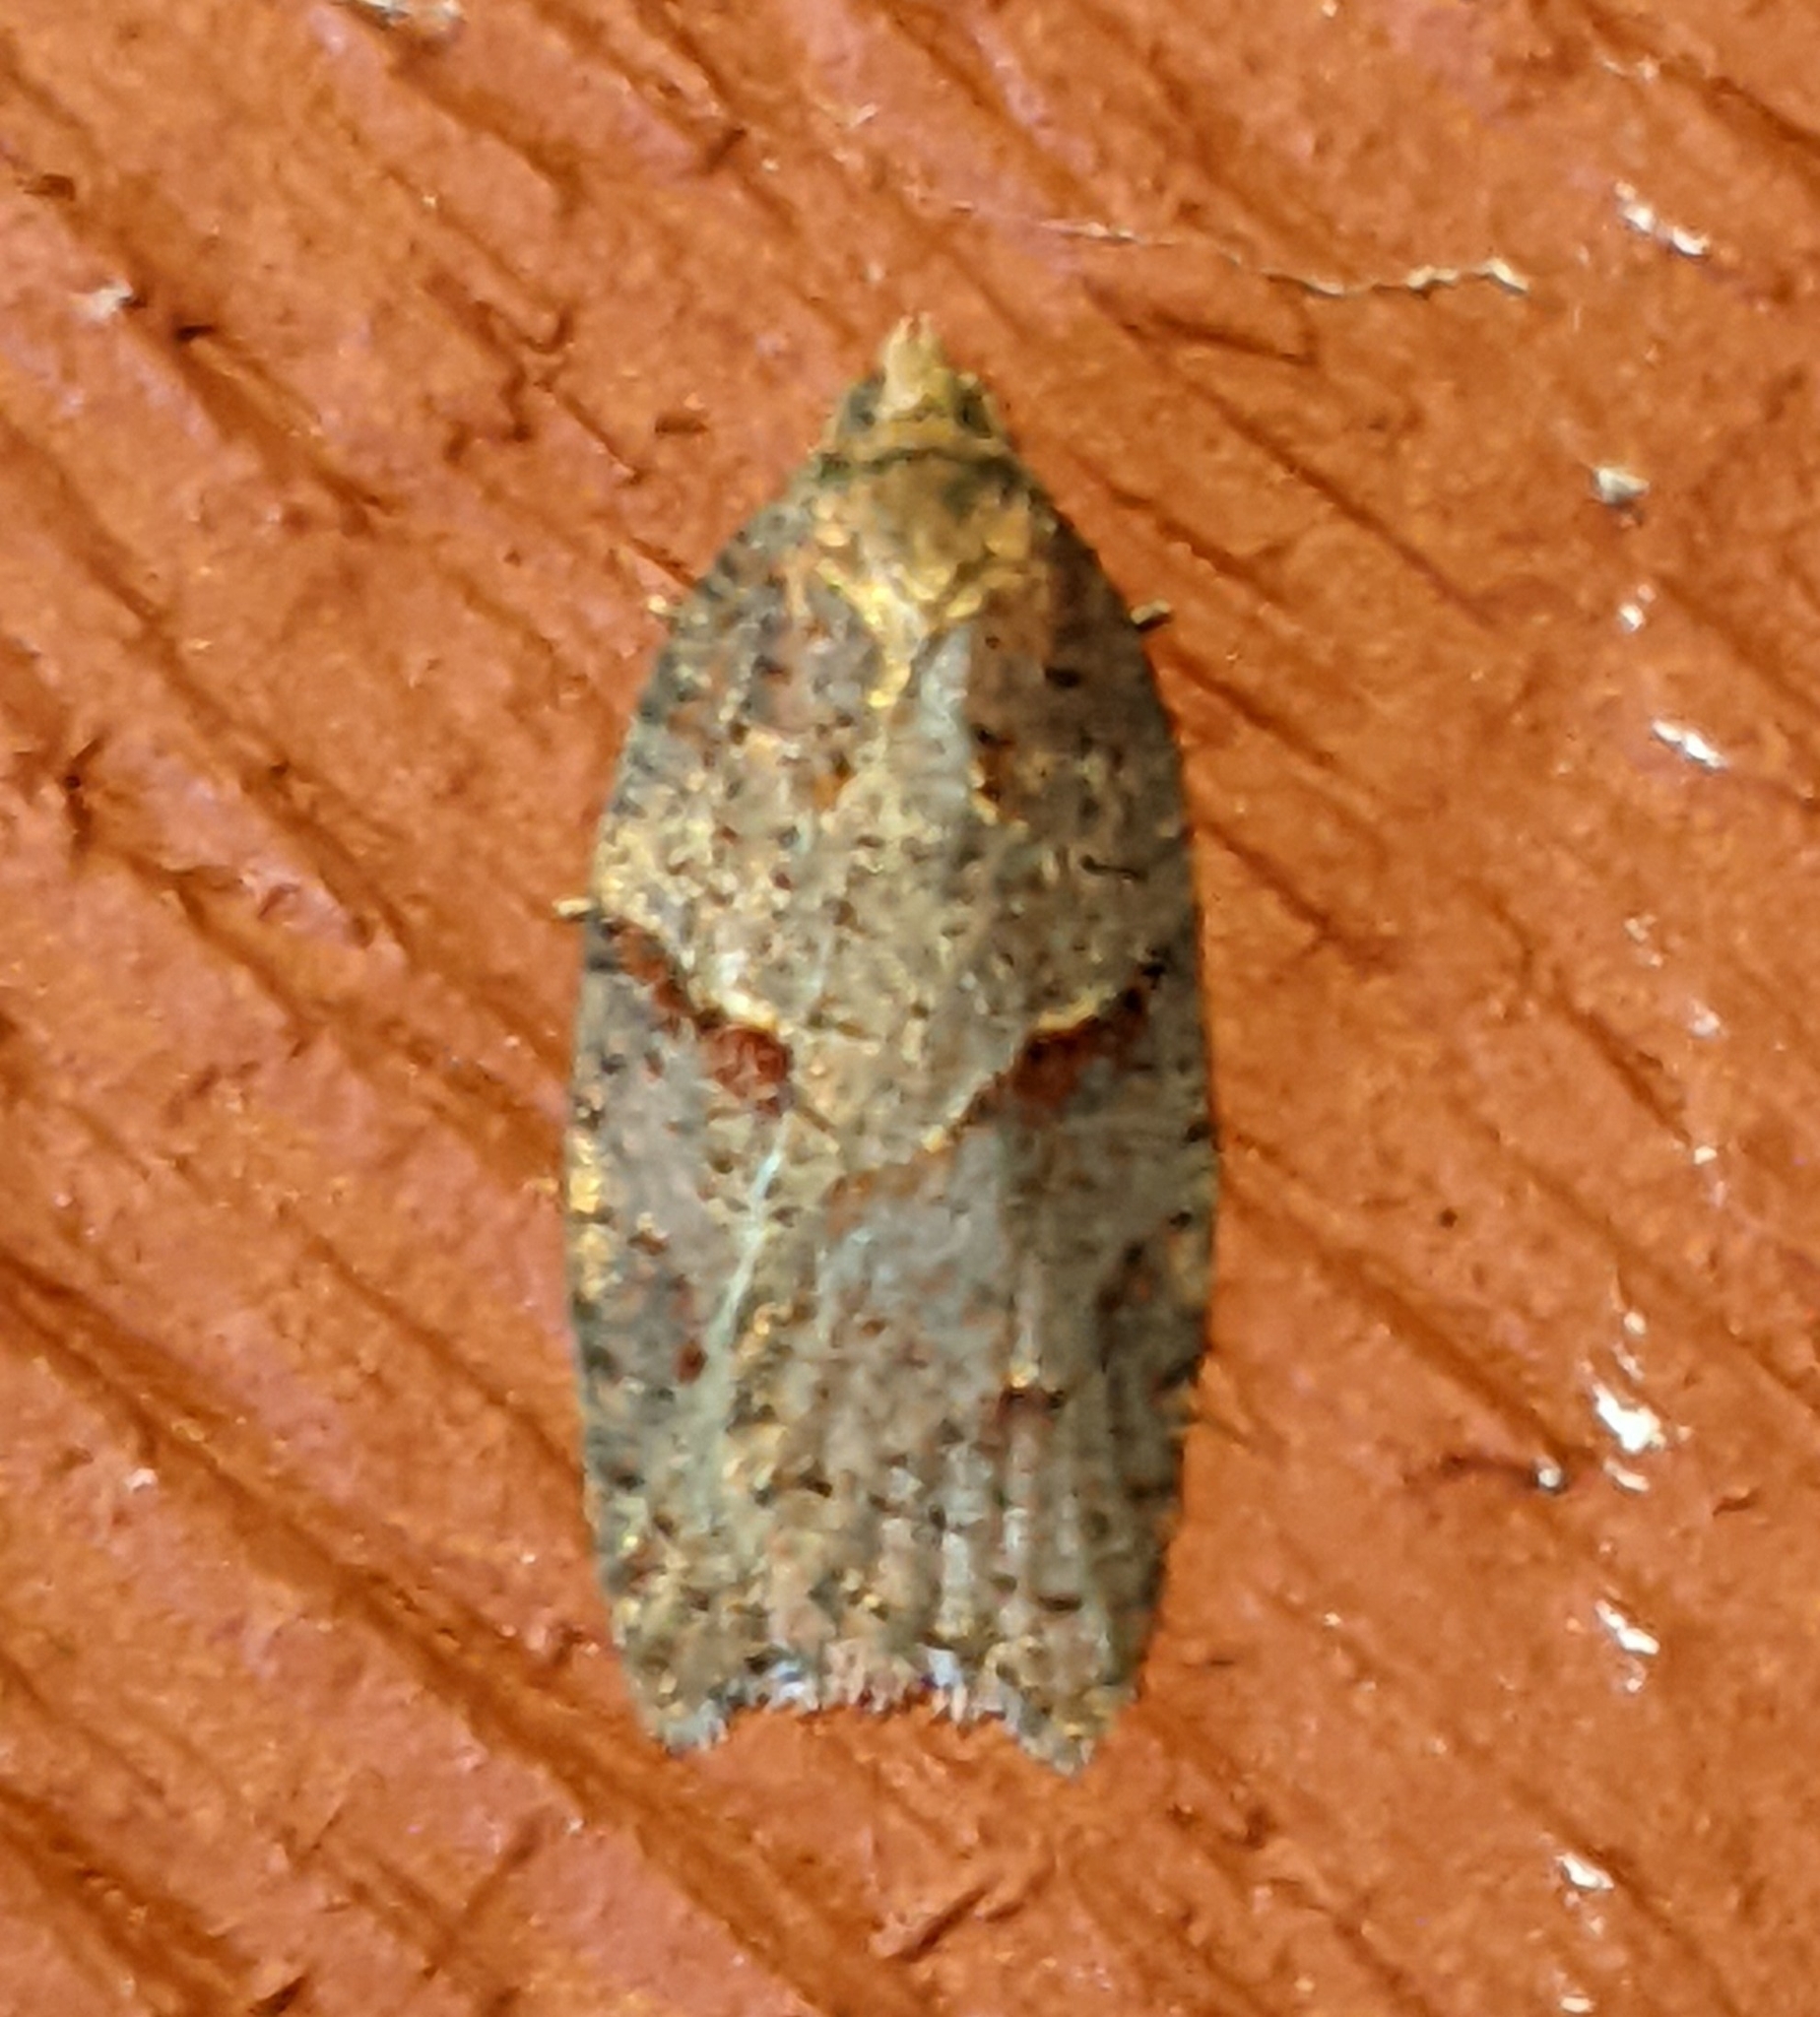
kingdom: Animalia
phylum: Arthropoda
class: Insecta
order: Lepidoptera
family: Tortricidae
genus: Acleris
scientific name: Acleris maccana
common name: Marbled button
